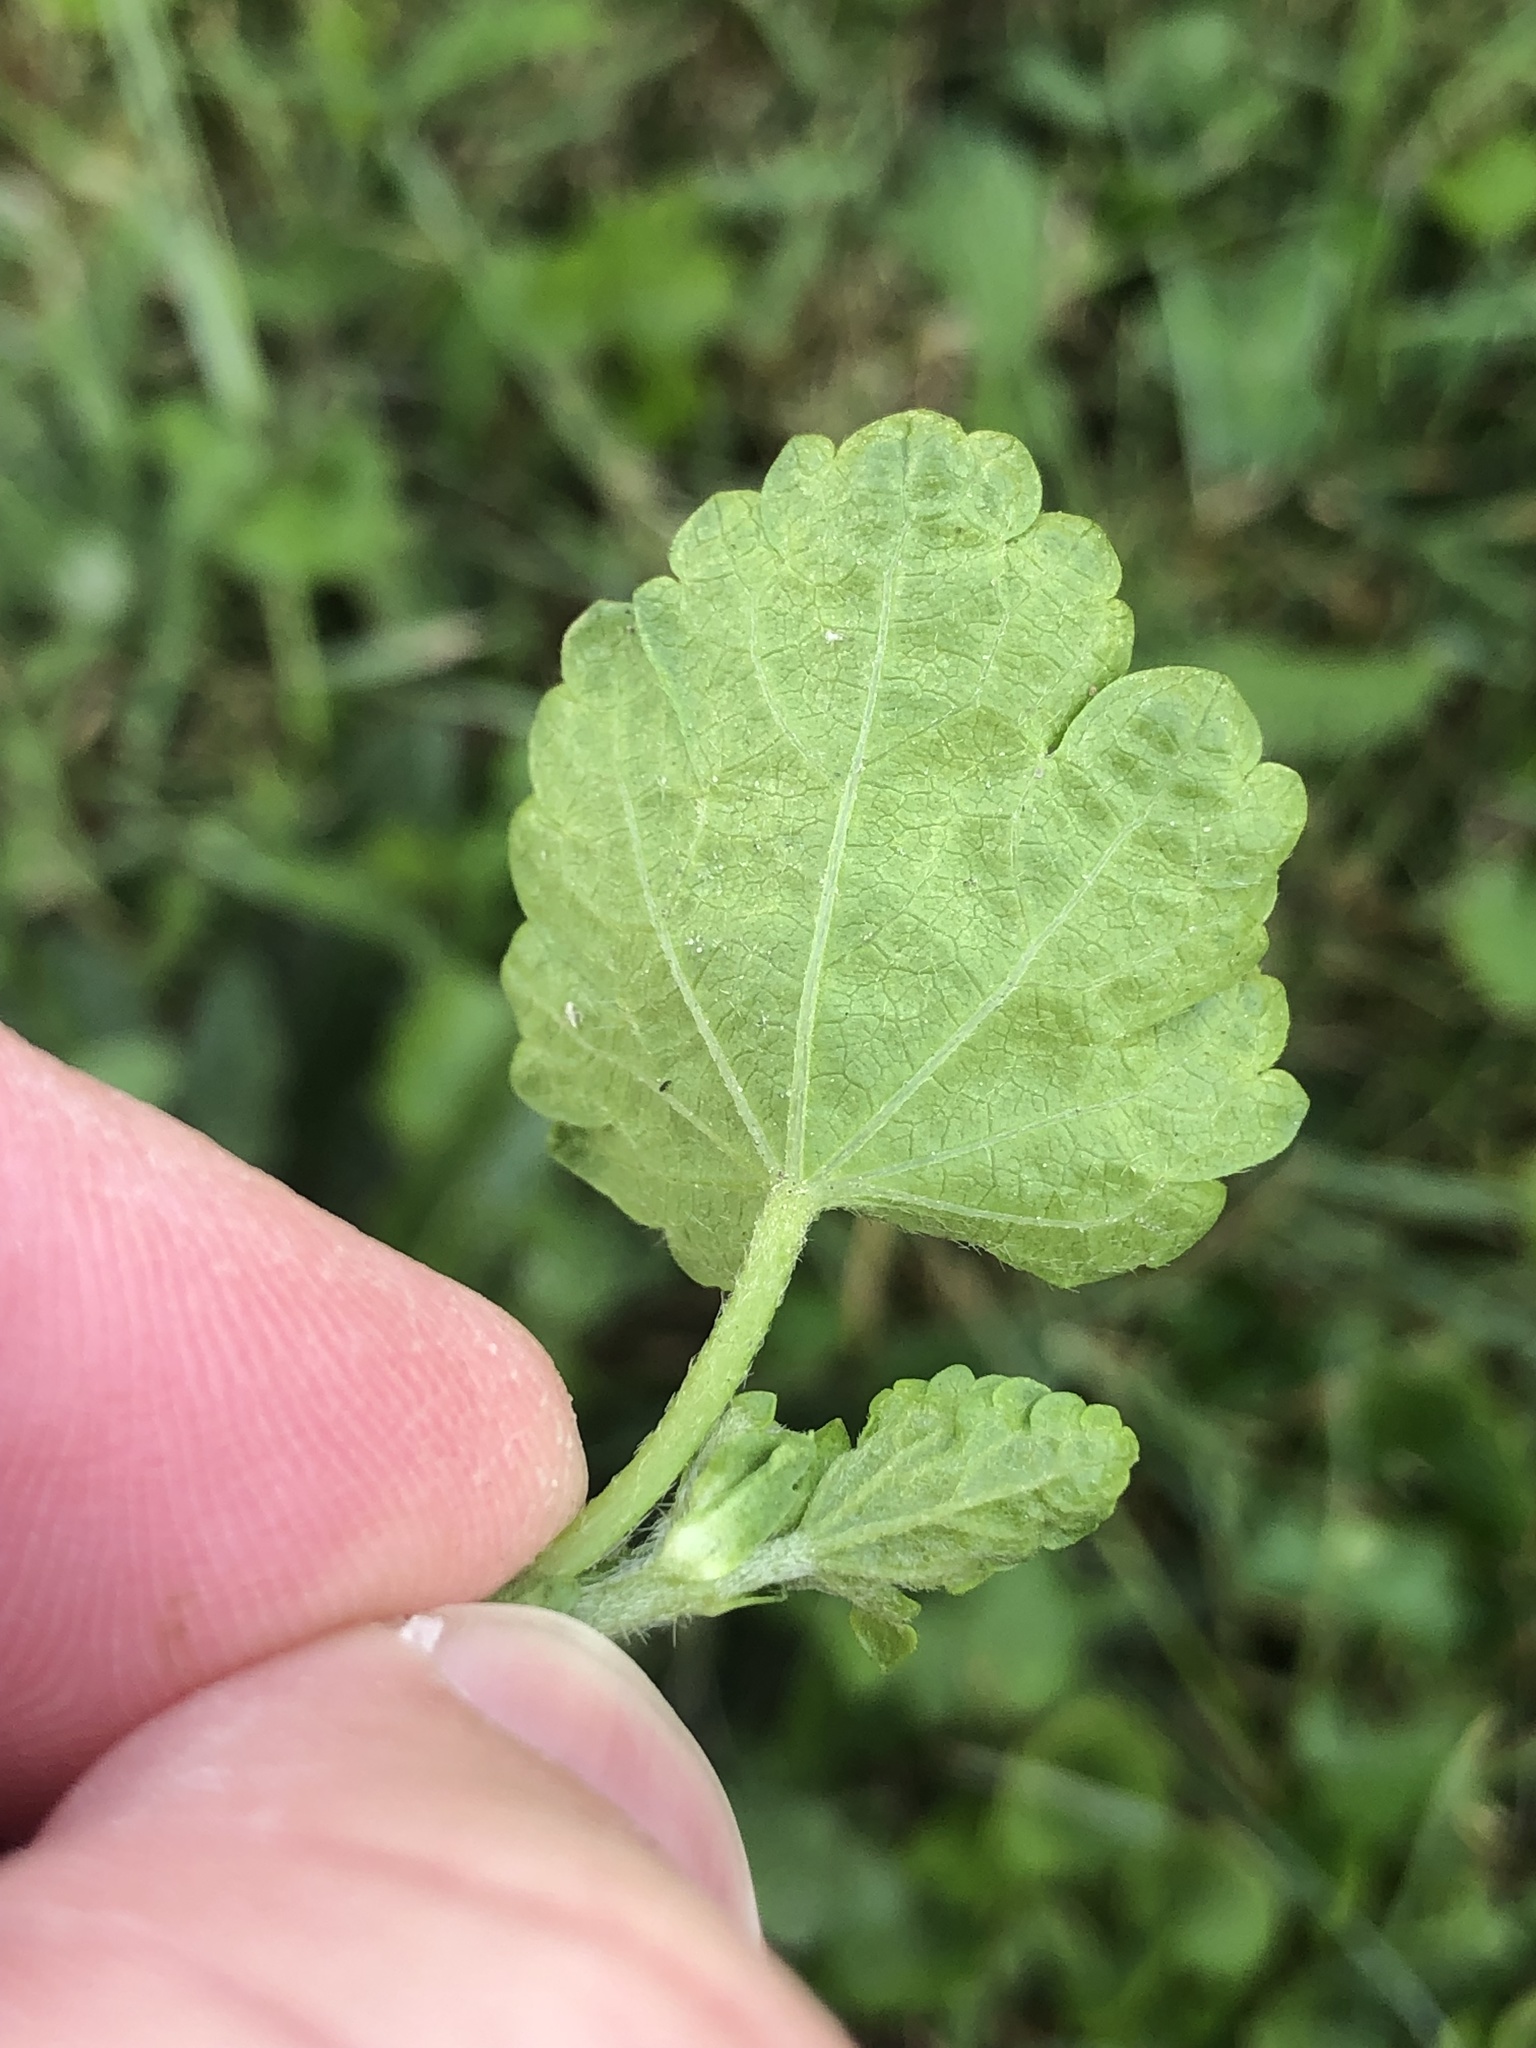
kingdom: Plantae
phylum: Tracheophyta
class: Magnoliopsida
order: Malvales
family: Malvaceae
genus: Modiola
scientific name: Modiola caroliniana
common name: Carolina bristlemallow
